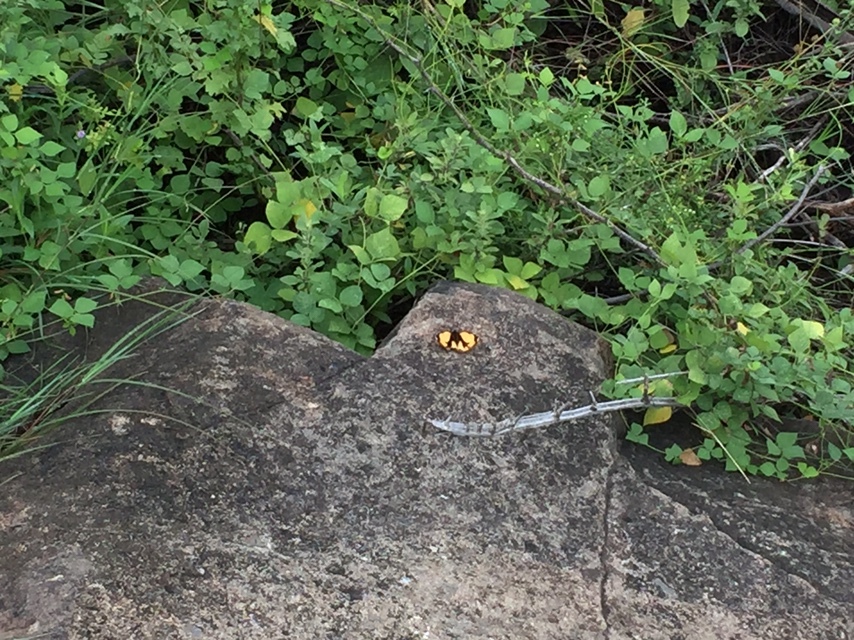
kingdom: Animalia
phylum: Arthropoda
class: Insecta
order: Lepidoptera
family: Nymphalidae
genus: Junonia
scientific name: Junonia hierta
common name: Yellow pansy
